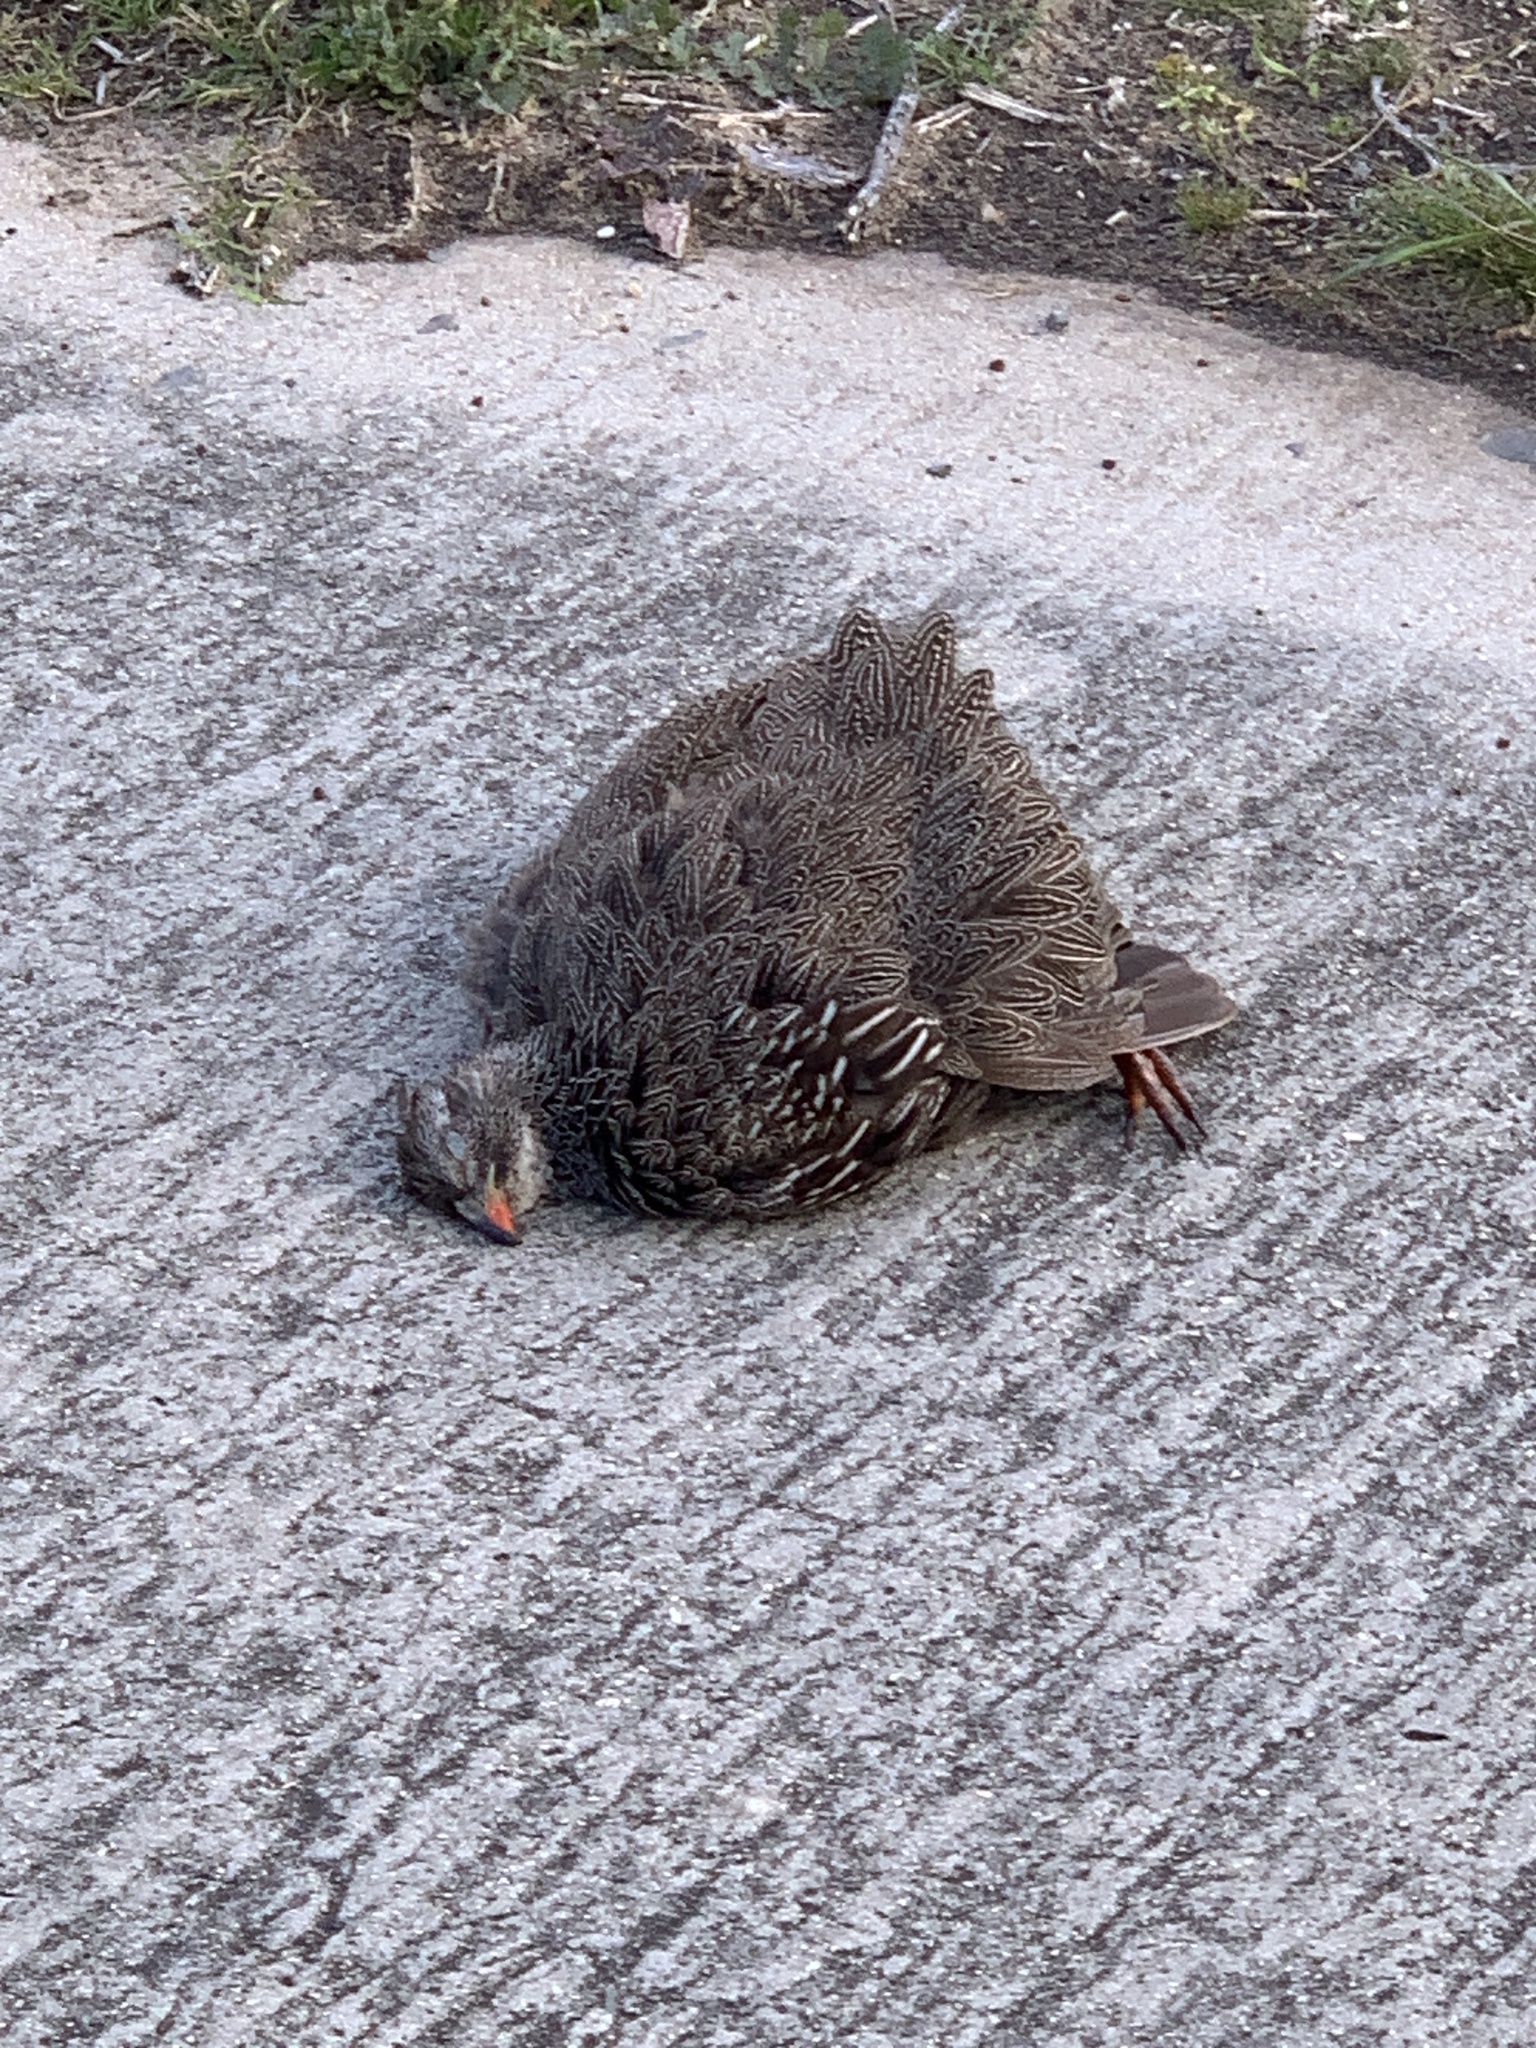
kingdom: Animalia
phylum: Chordata
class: Aves
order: Galliformes
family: Phasianidae
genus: Pternistis
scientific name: Pternistis capensis
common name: Cape spurfowl
